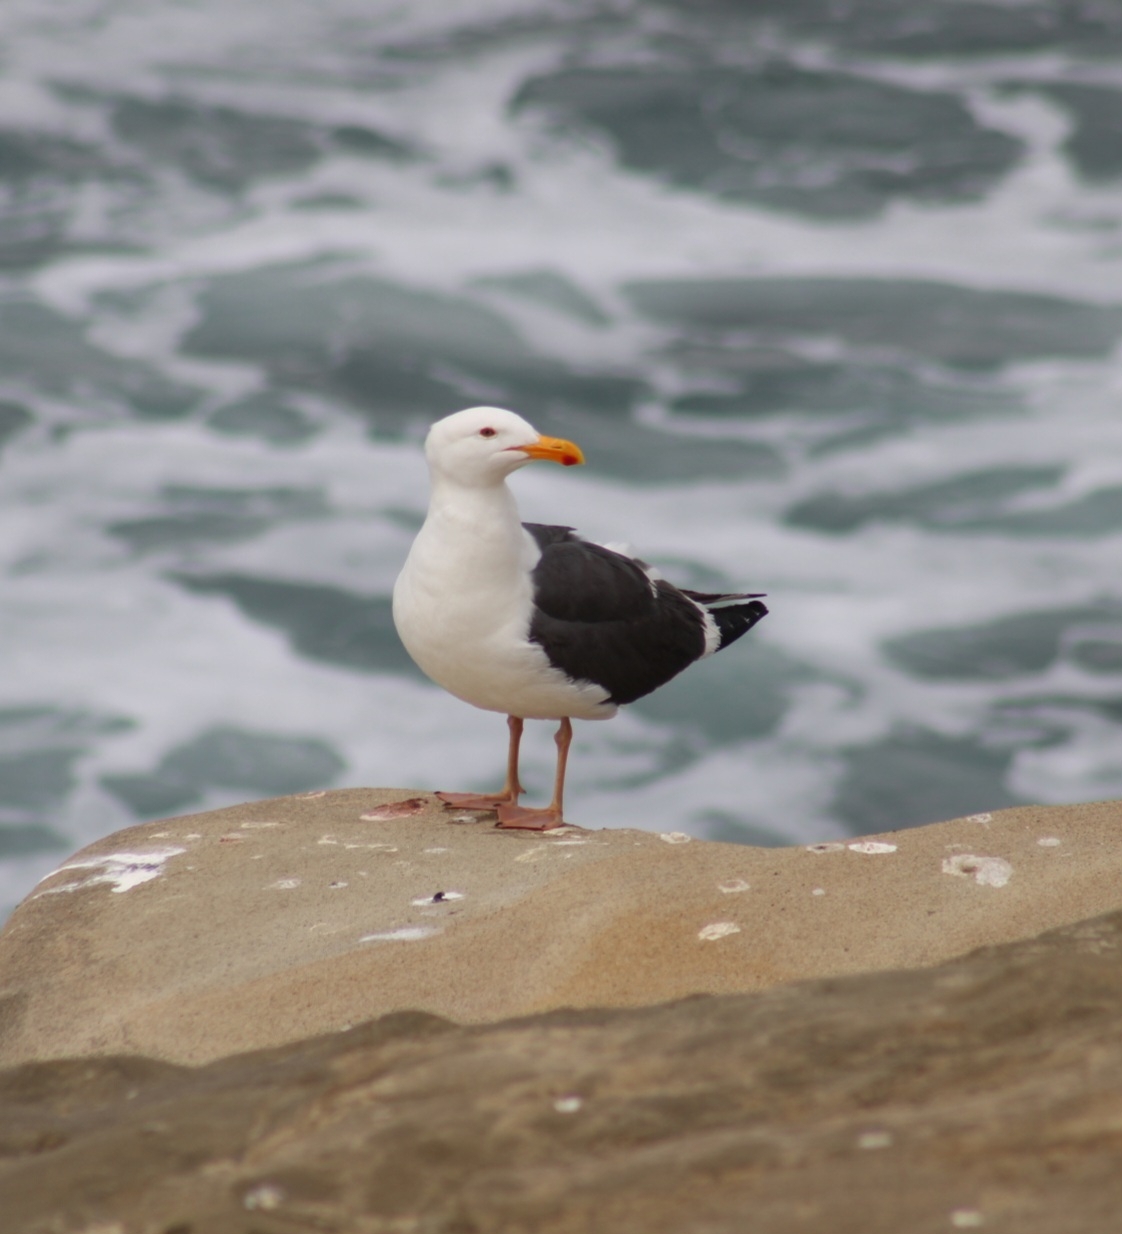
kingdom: Animalia
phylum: Chordata
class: Aves
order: Charadriiformes
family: Laridae
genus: Larus
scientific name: Larus occidentalis
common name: Western gull
